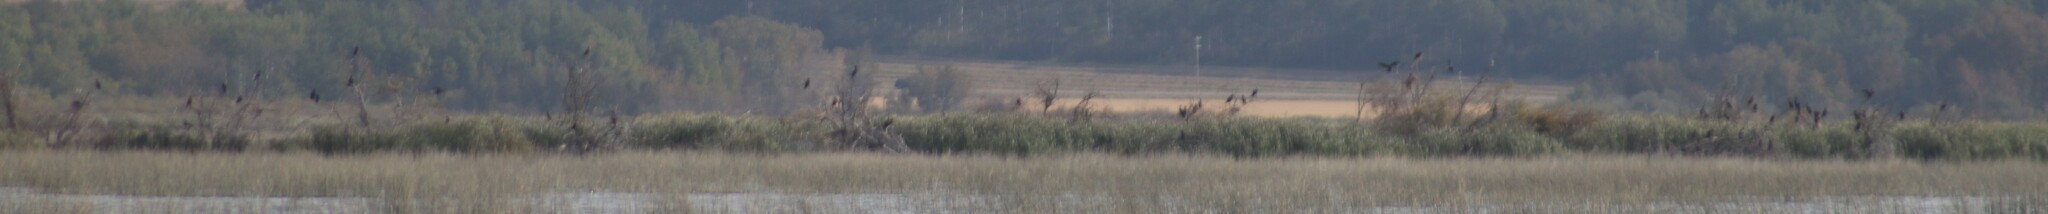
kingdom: Animalia
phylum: Chordata
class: Aves
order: Suliformes
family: Phalacrocoracidae
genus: Phalacrocorax
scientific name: Phalacrocorax auritus
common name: Double-crested cormorant
